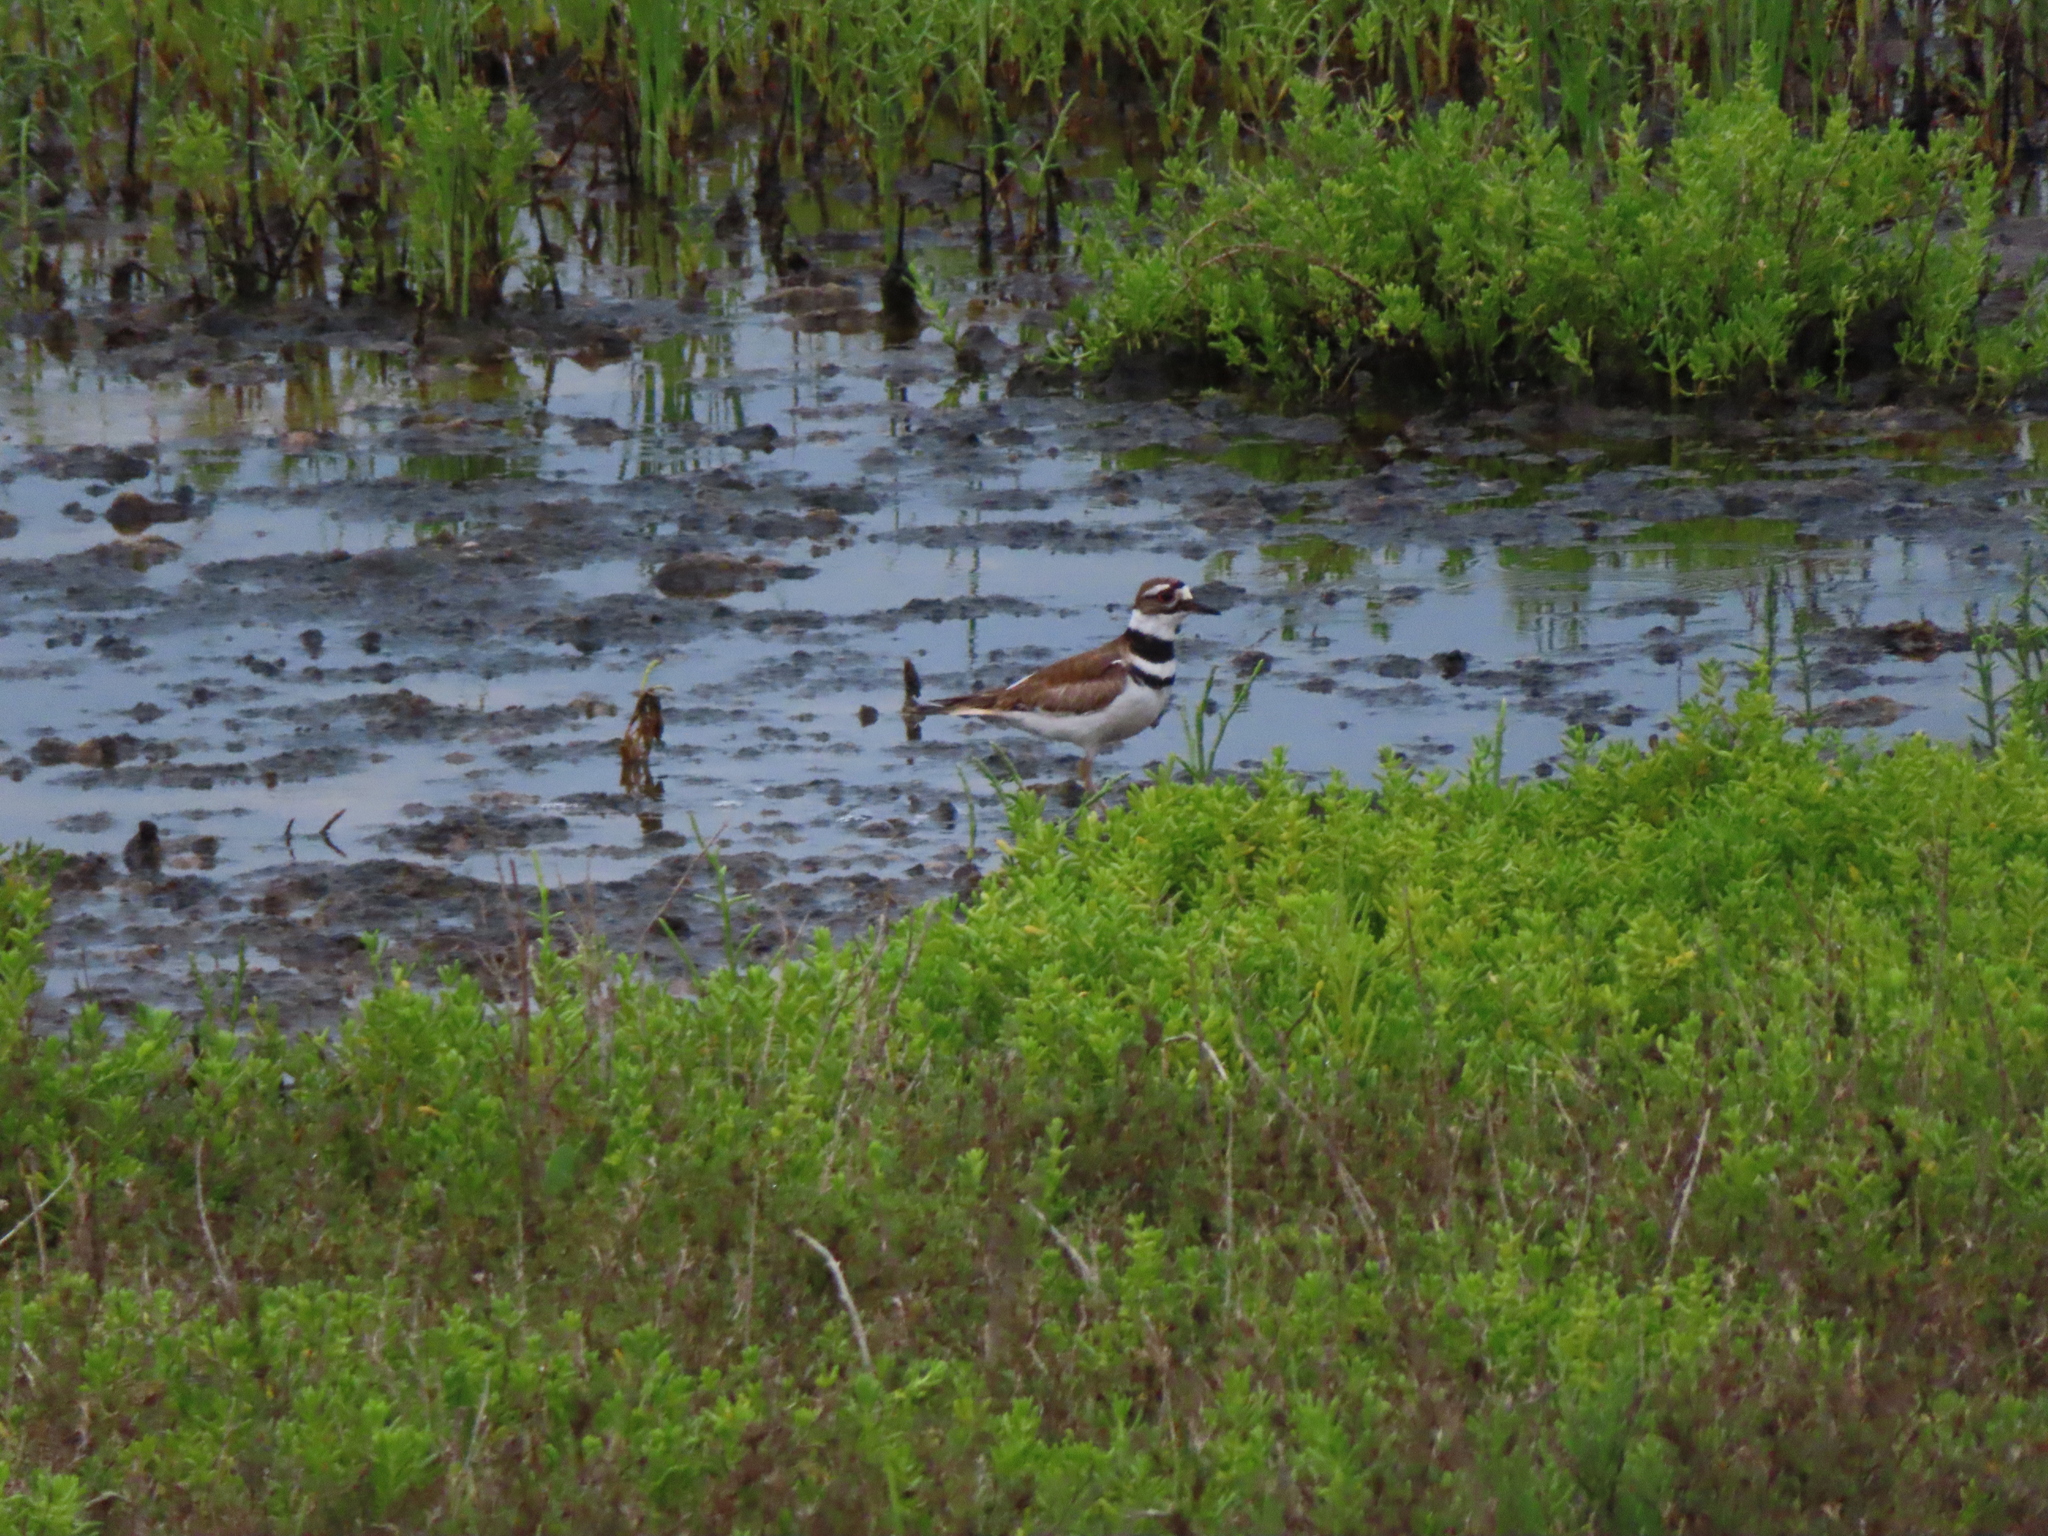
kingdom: Animalia
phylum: Chordata
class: Aves
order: Charadriiformes
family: Charadriidae
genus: Charadrius
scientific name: Charadrius vociferus
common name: Killdeer
